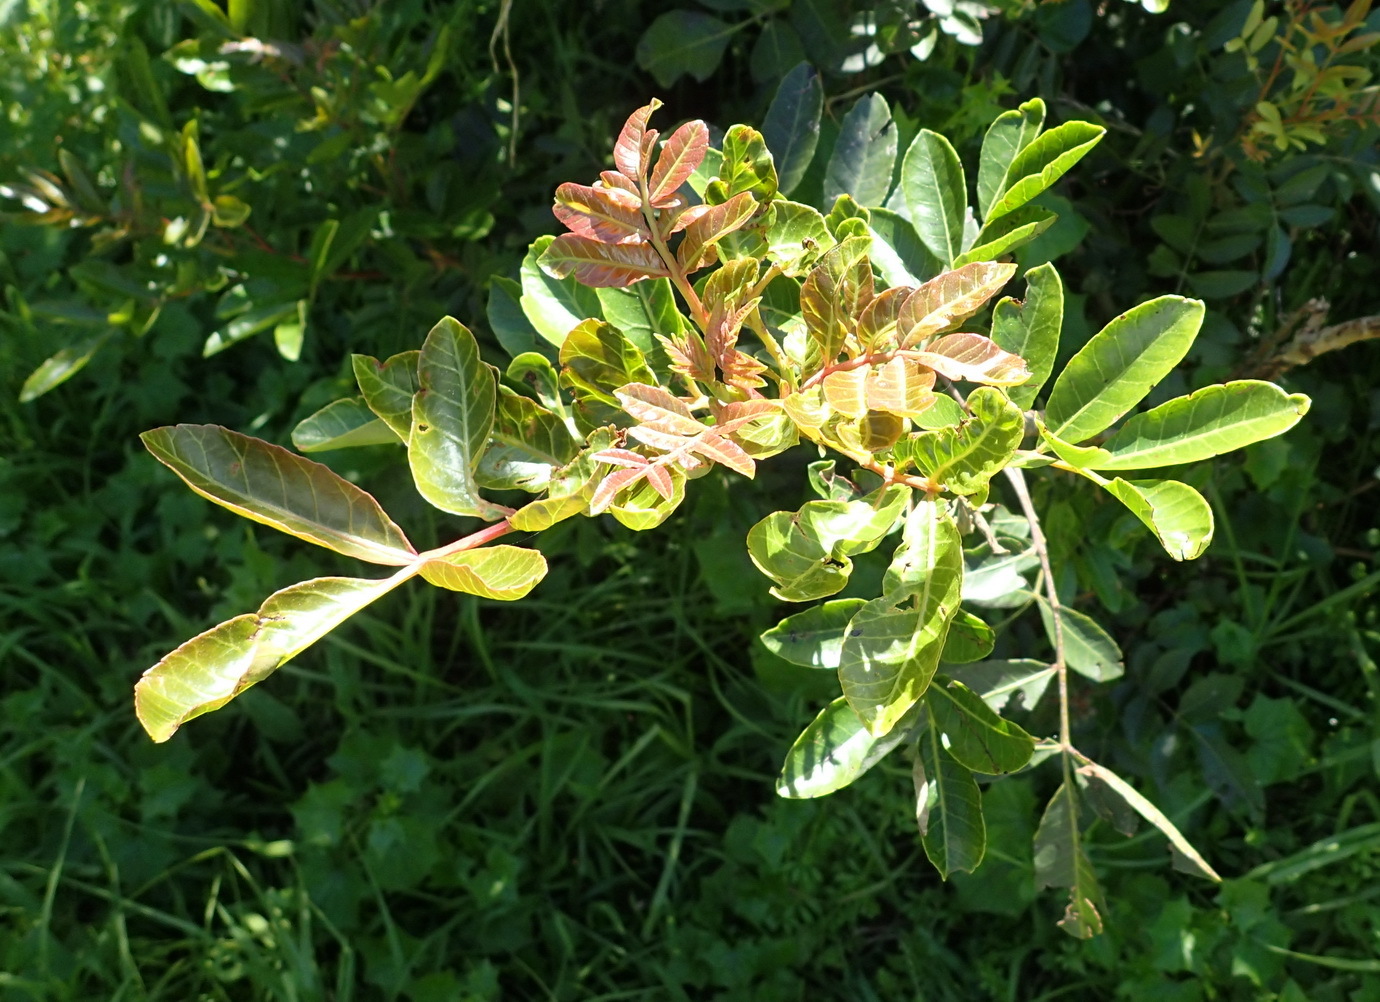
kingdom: Plantae
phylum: Tracheophyta
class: Magnoliopsida
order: Sapindales
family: Anacardiaceae
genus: Schinus
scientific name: Schinus terebinthifolia
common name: Brazilian peppertree
